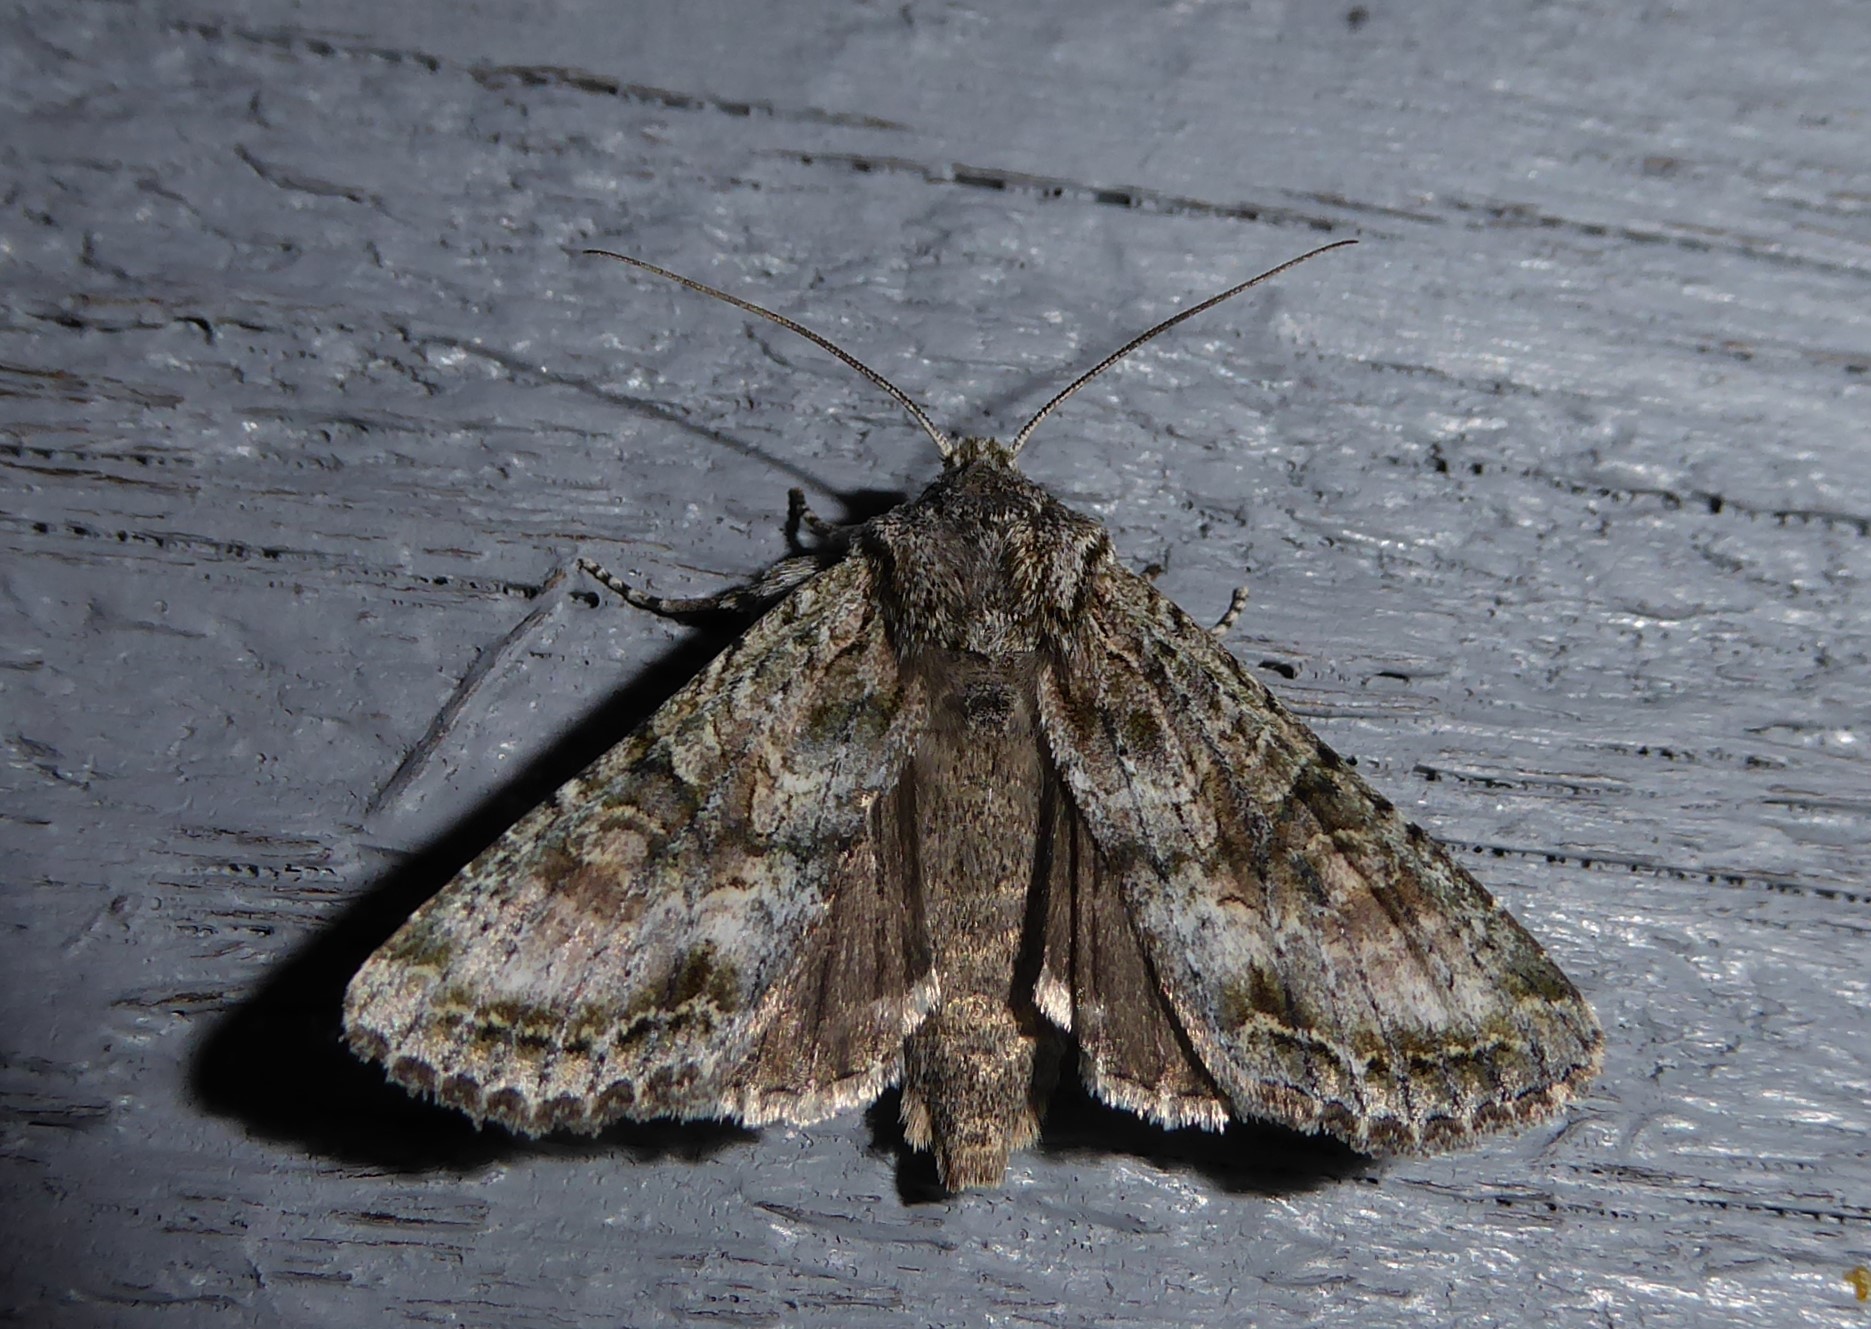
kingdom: Animalia
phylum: Arthropoda
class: Insecta
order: Lepidoptera
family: Noctuidae
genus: Ichneutica
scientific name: Ichneutica mutans
